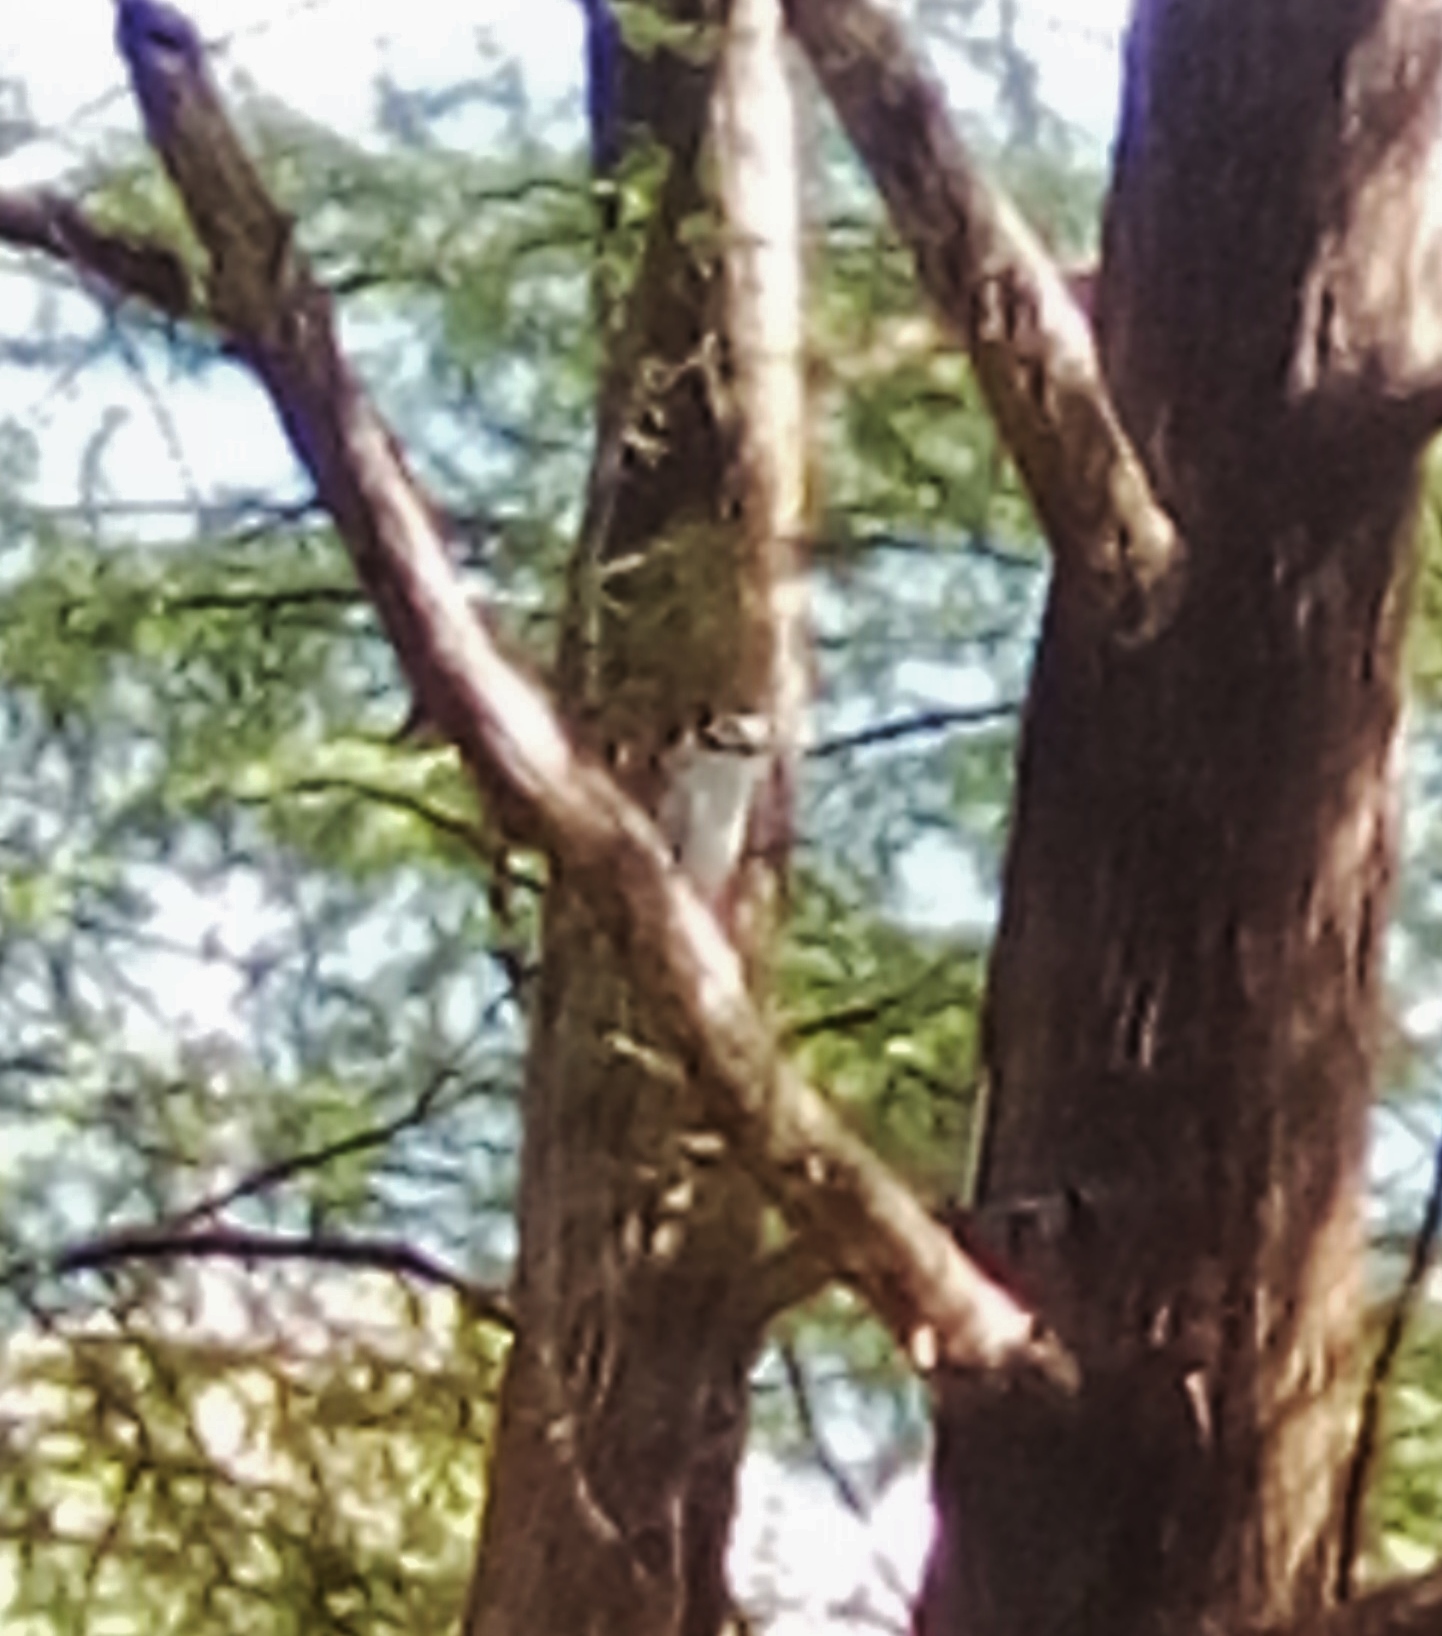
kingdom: Animalia
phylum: Chordata
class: Aves
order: Pelecaniformes
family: Ardeidae
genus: Nyctanassa
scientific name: Nyctanassa violacea
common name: Yellow-crowned night heron
